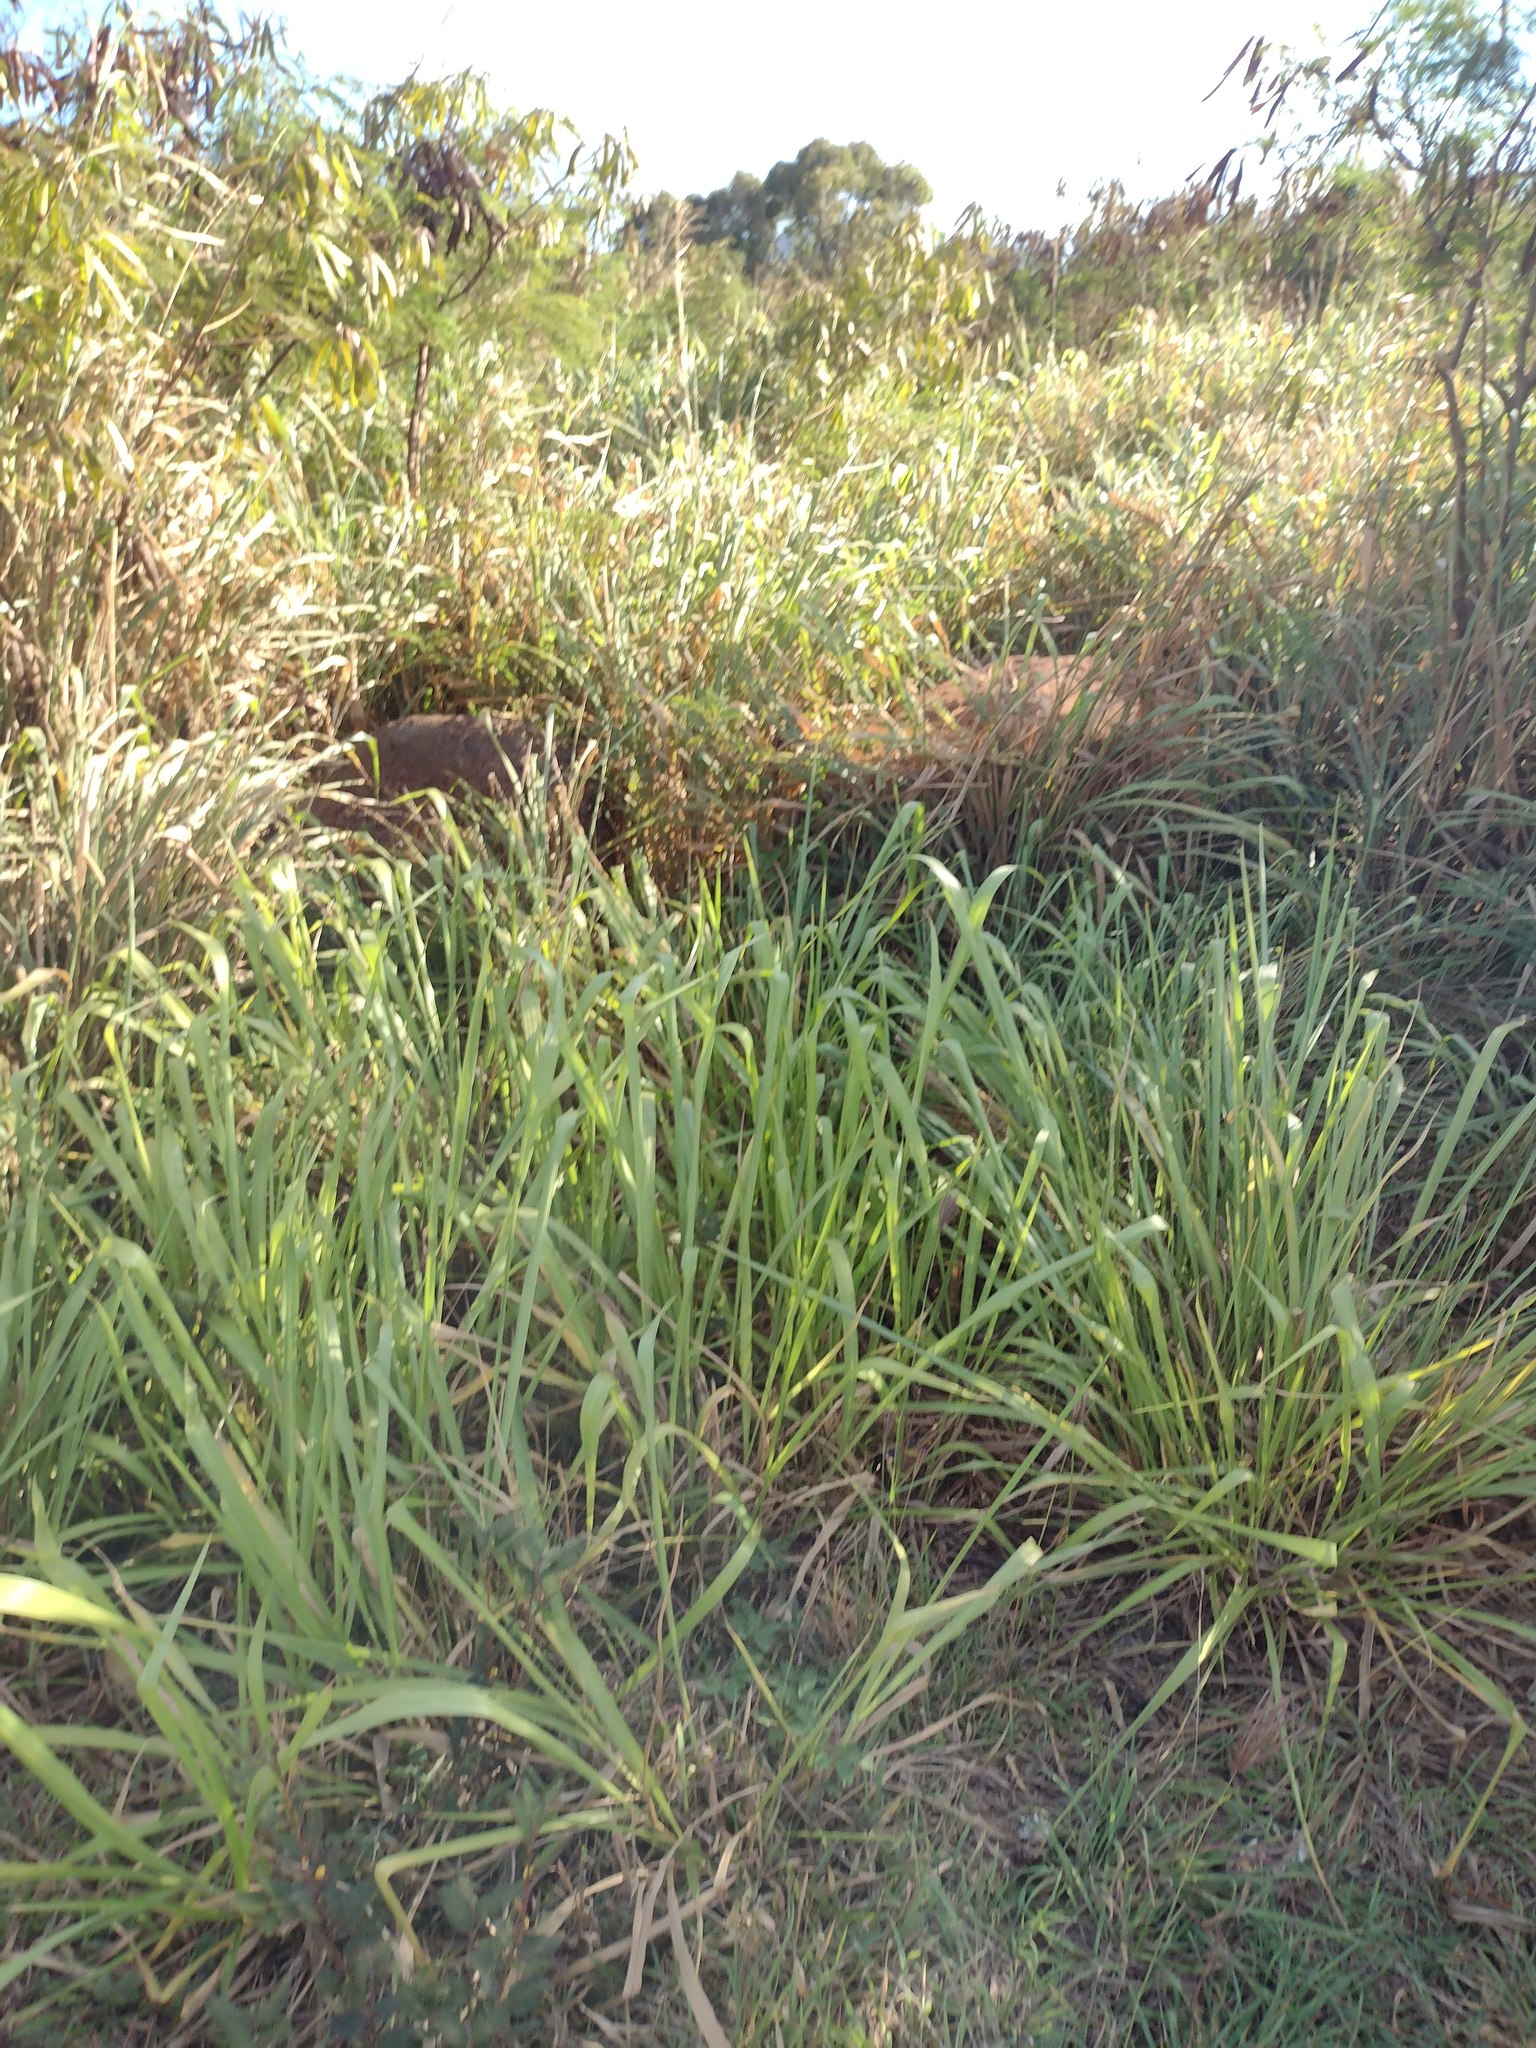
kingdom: Plantae
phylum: Tracheophyta
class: Liliopsida
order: Poales
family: Poaceae
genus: Megathyrsus
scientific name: Megathyrsus maximus
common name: Guineagrass
